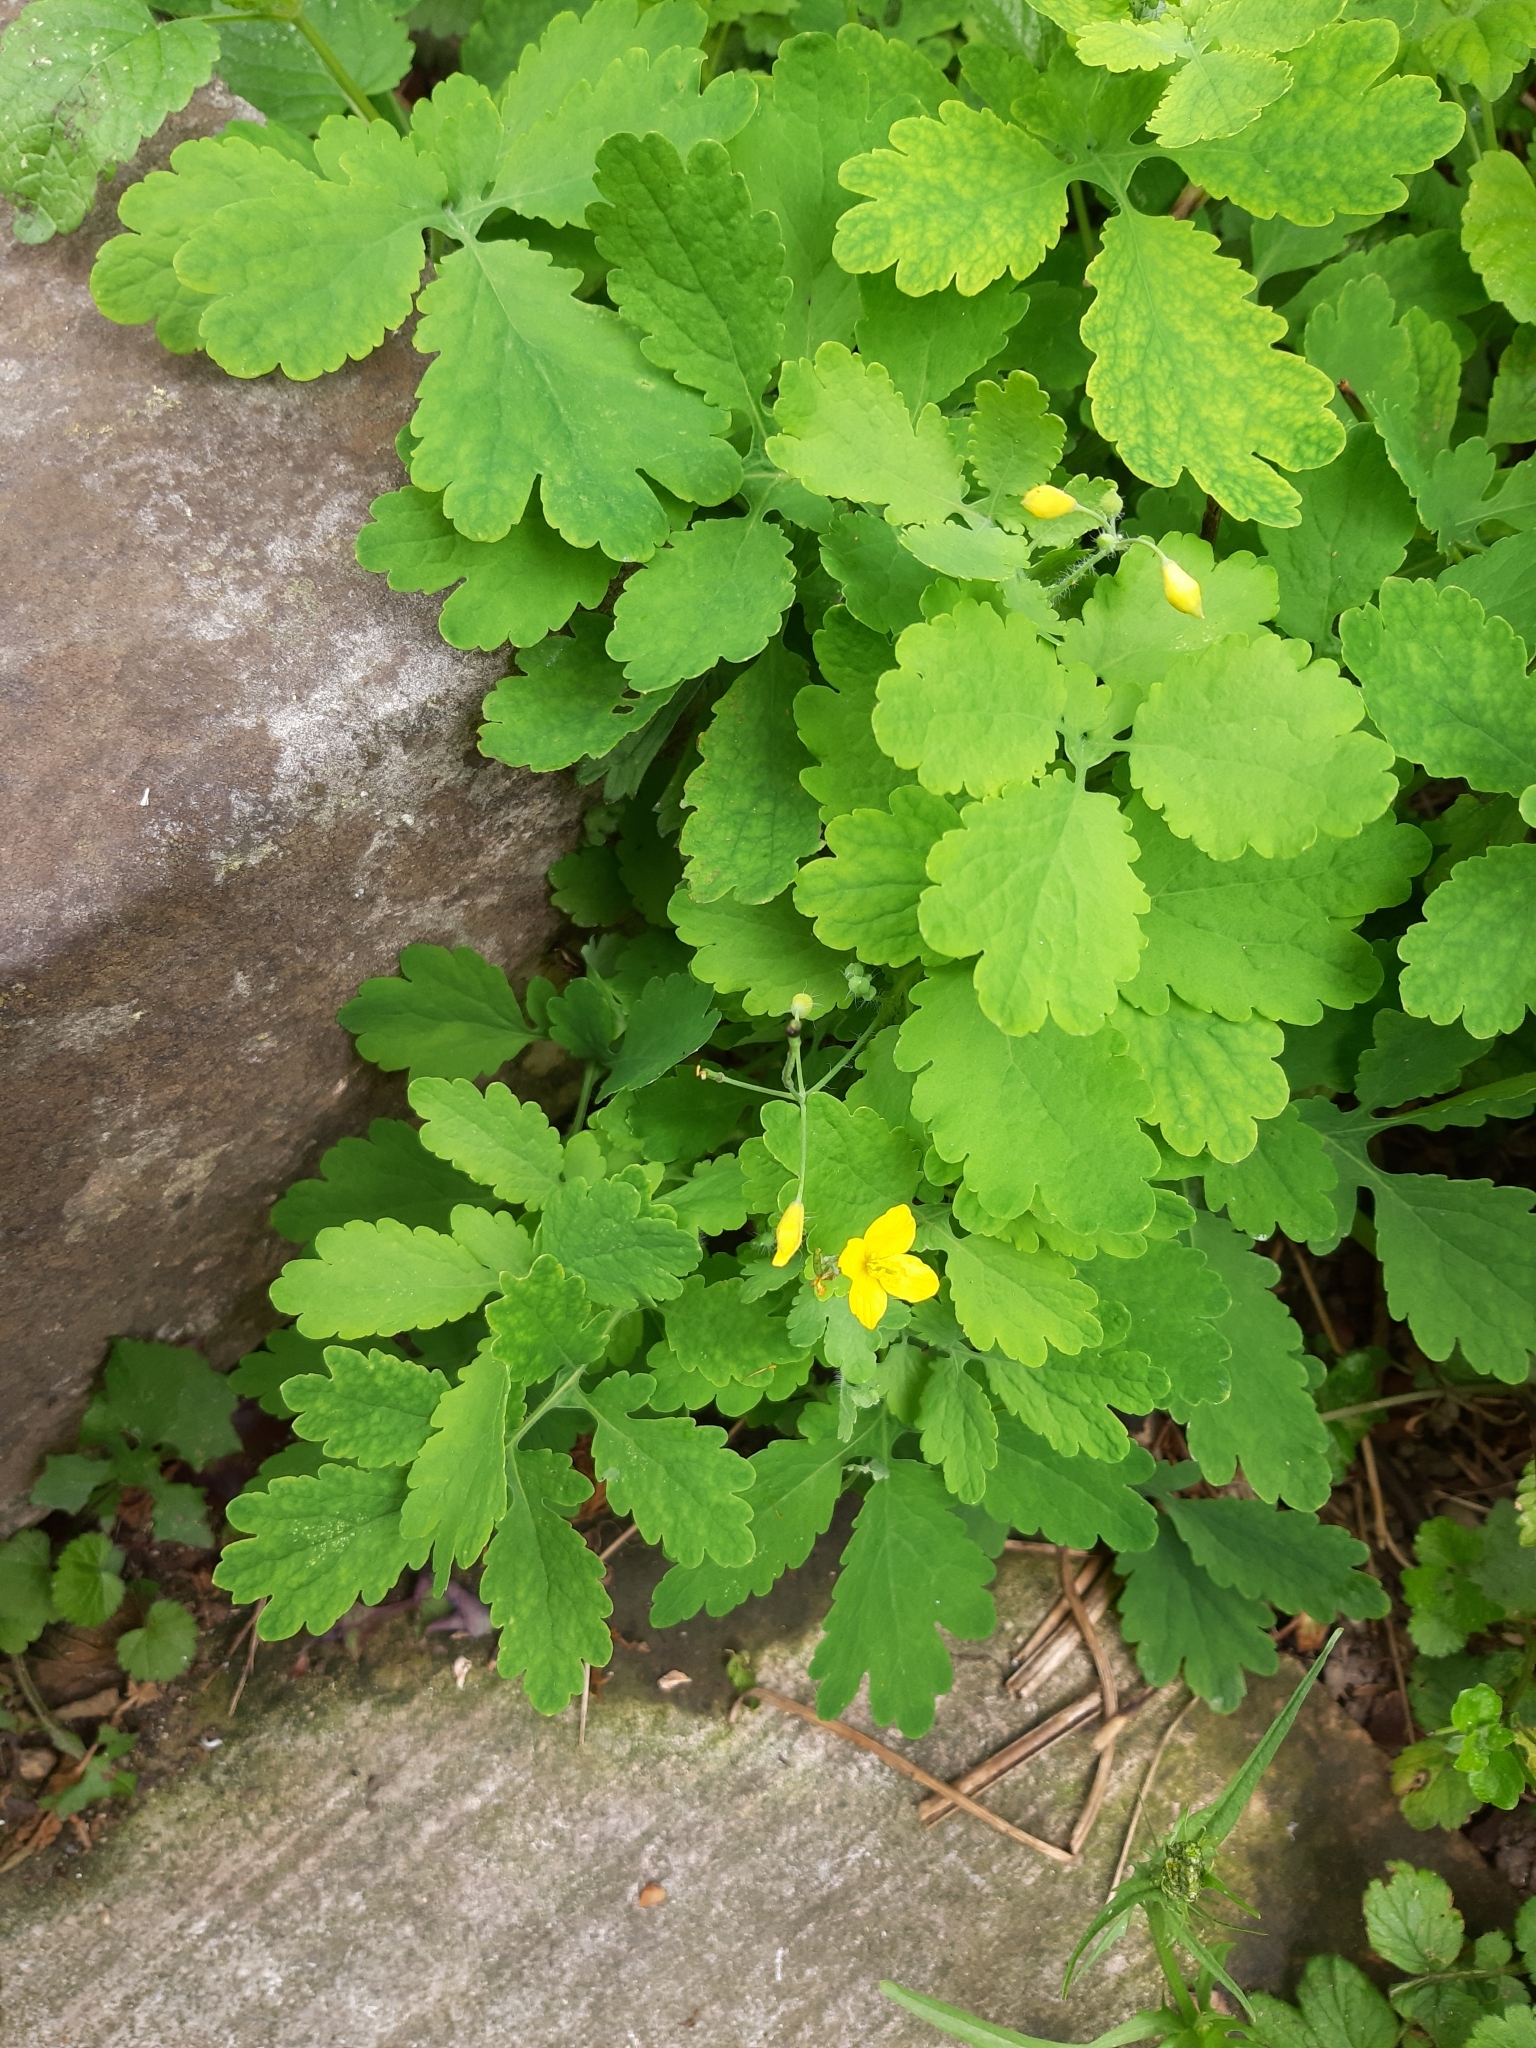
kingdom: Plantae
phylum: Tracheophyta
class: Magnoliopsida
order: Ranunculales
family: Papaveraceae
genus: Chelidonium
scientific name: Chelidonium majus
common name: Greater celandine
